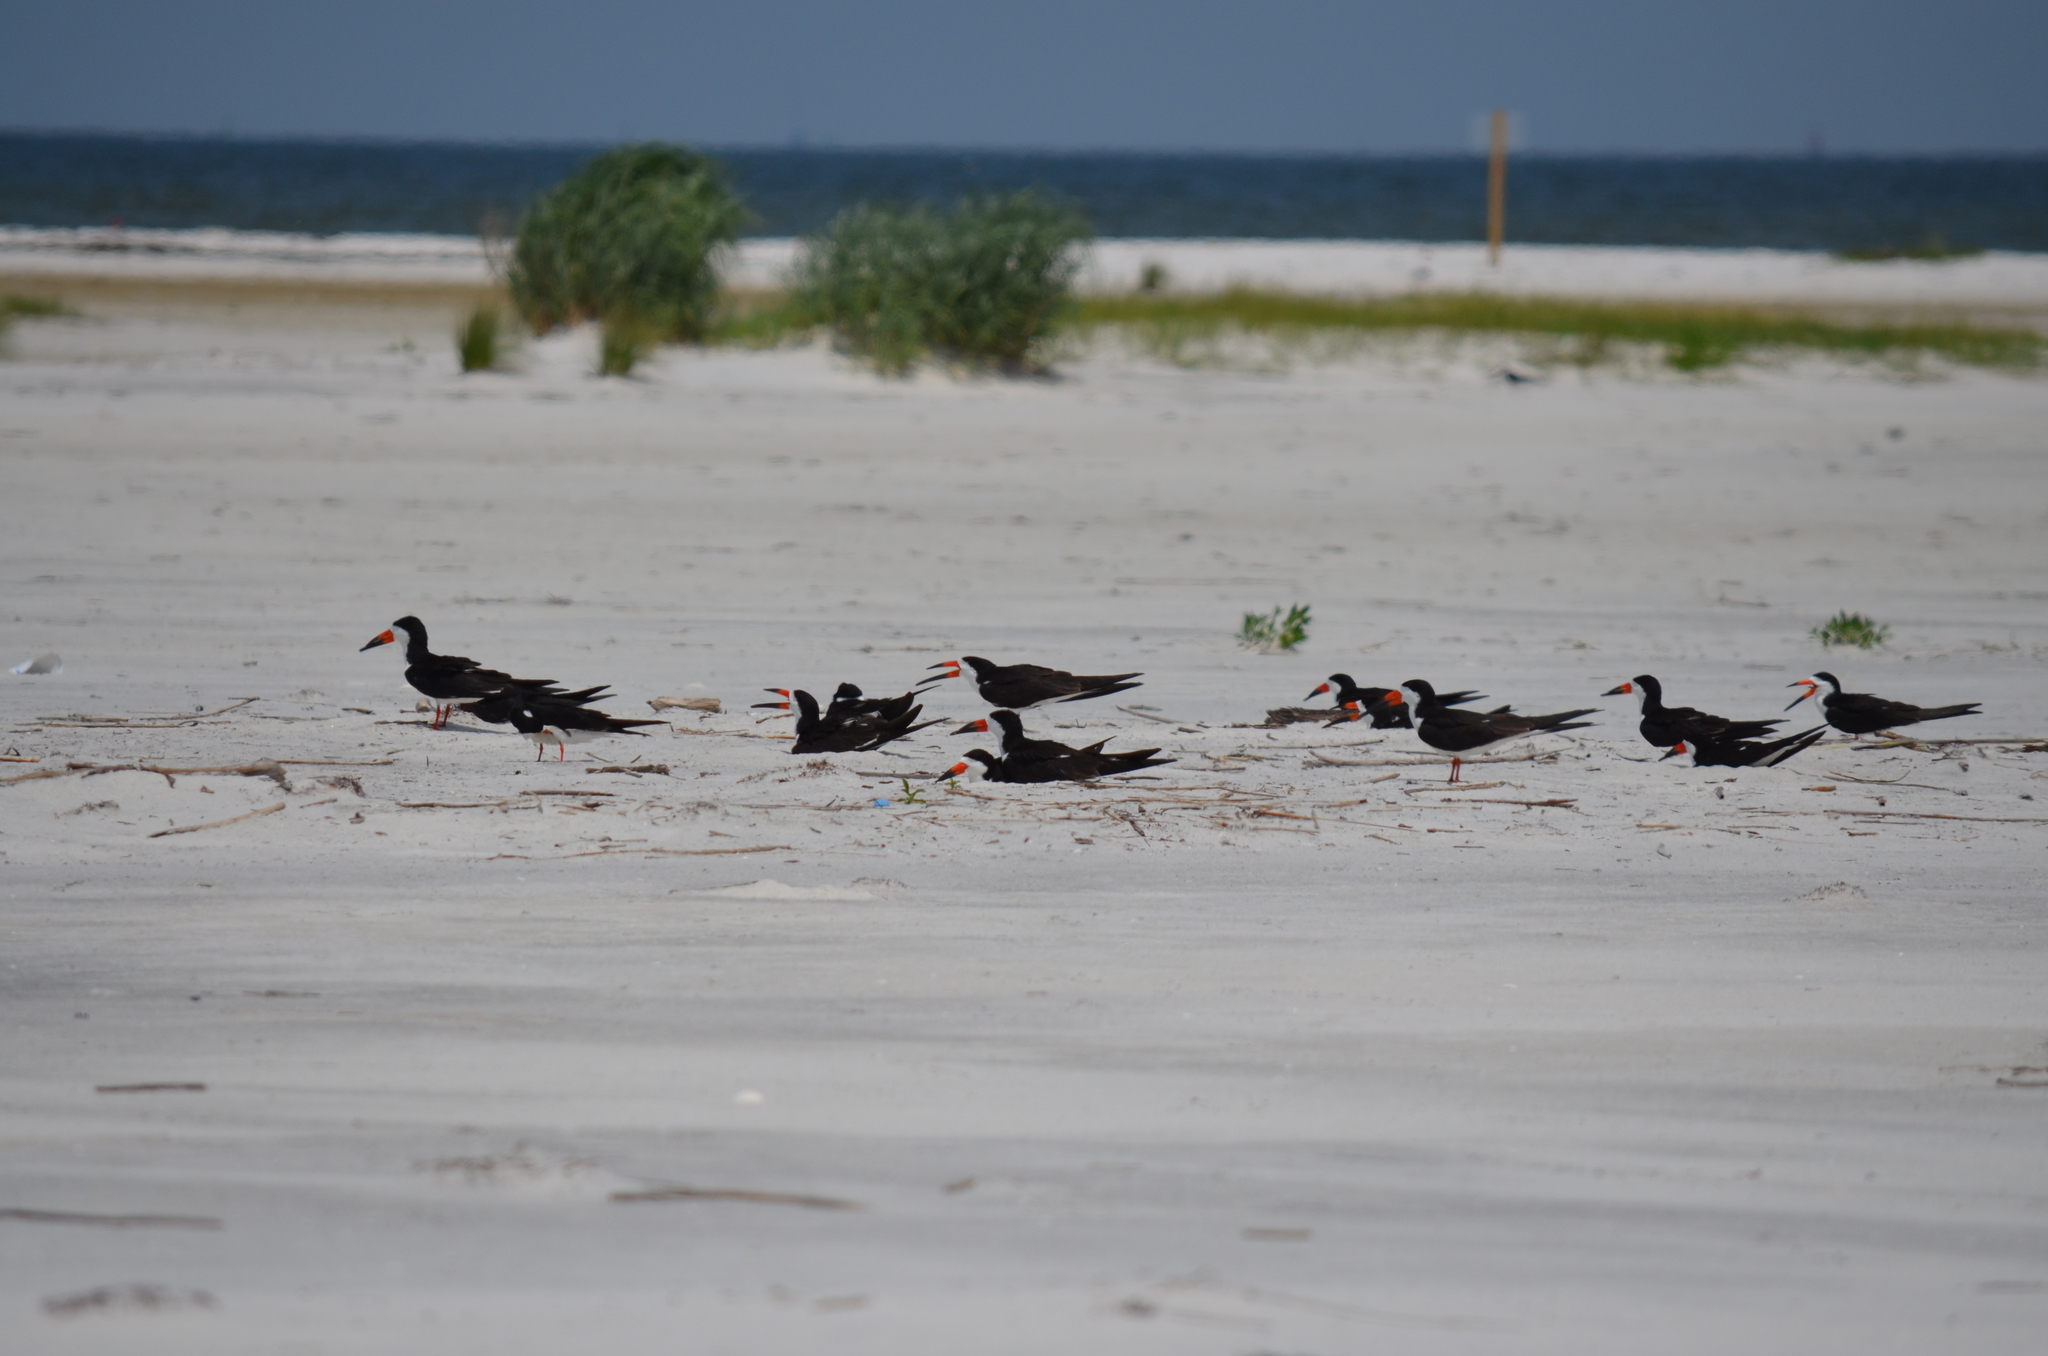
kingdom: Animalia
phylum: Chordata
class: Aves
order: Charadriiformes
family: Laridae
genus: Rynchops
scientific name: Rynchops niger
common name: Black skimmer
